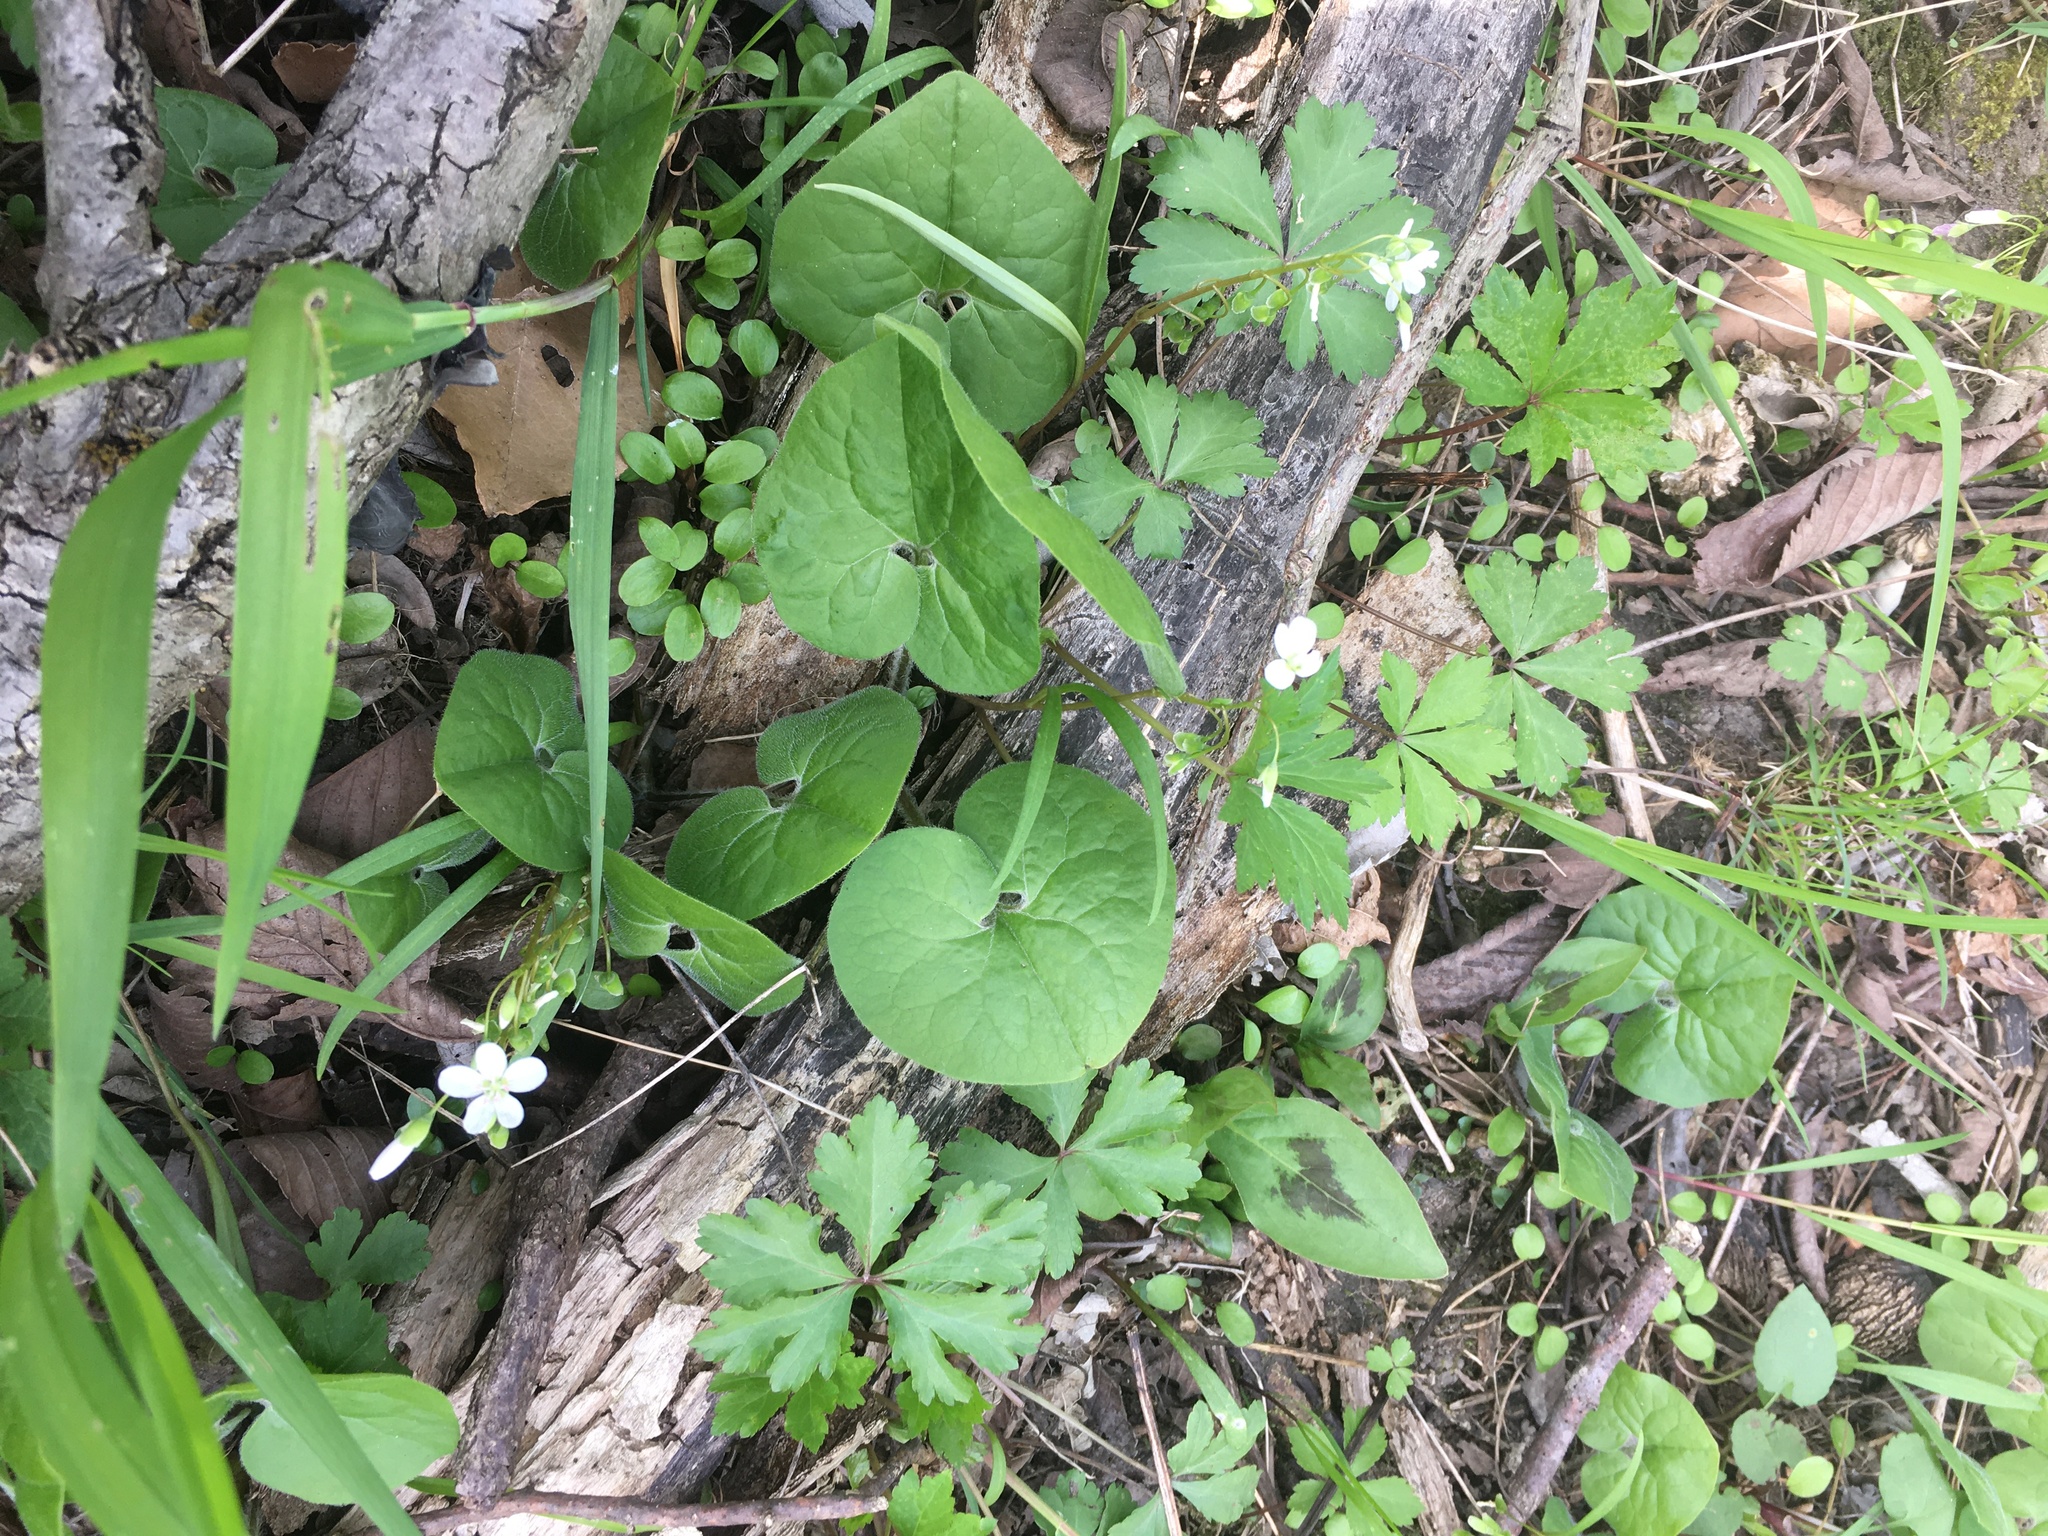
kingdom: Plantae
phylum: Tracheophyta
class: Magnoliopsida
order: Piperales
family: Aristolochiaceae
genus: Asarum
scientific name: Asarum canadense
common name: Wild ginger
